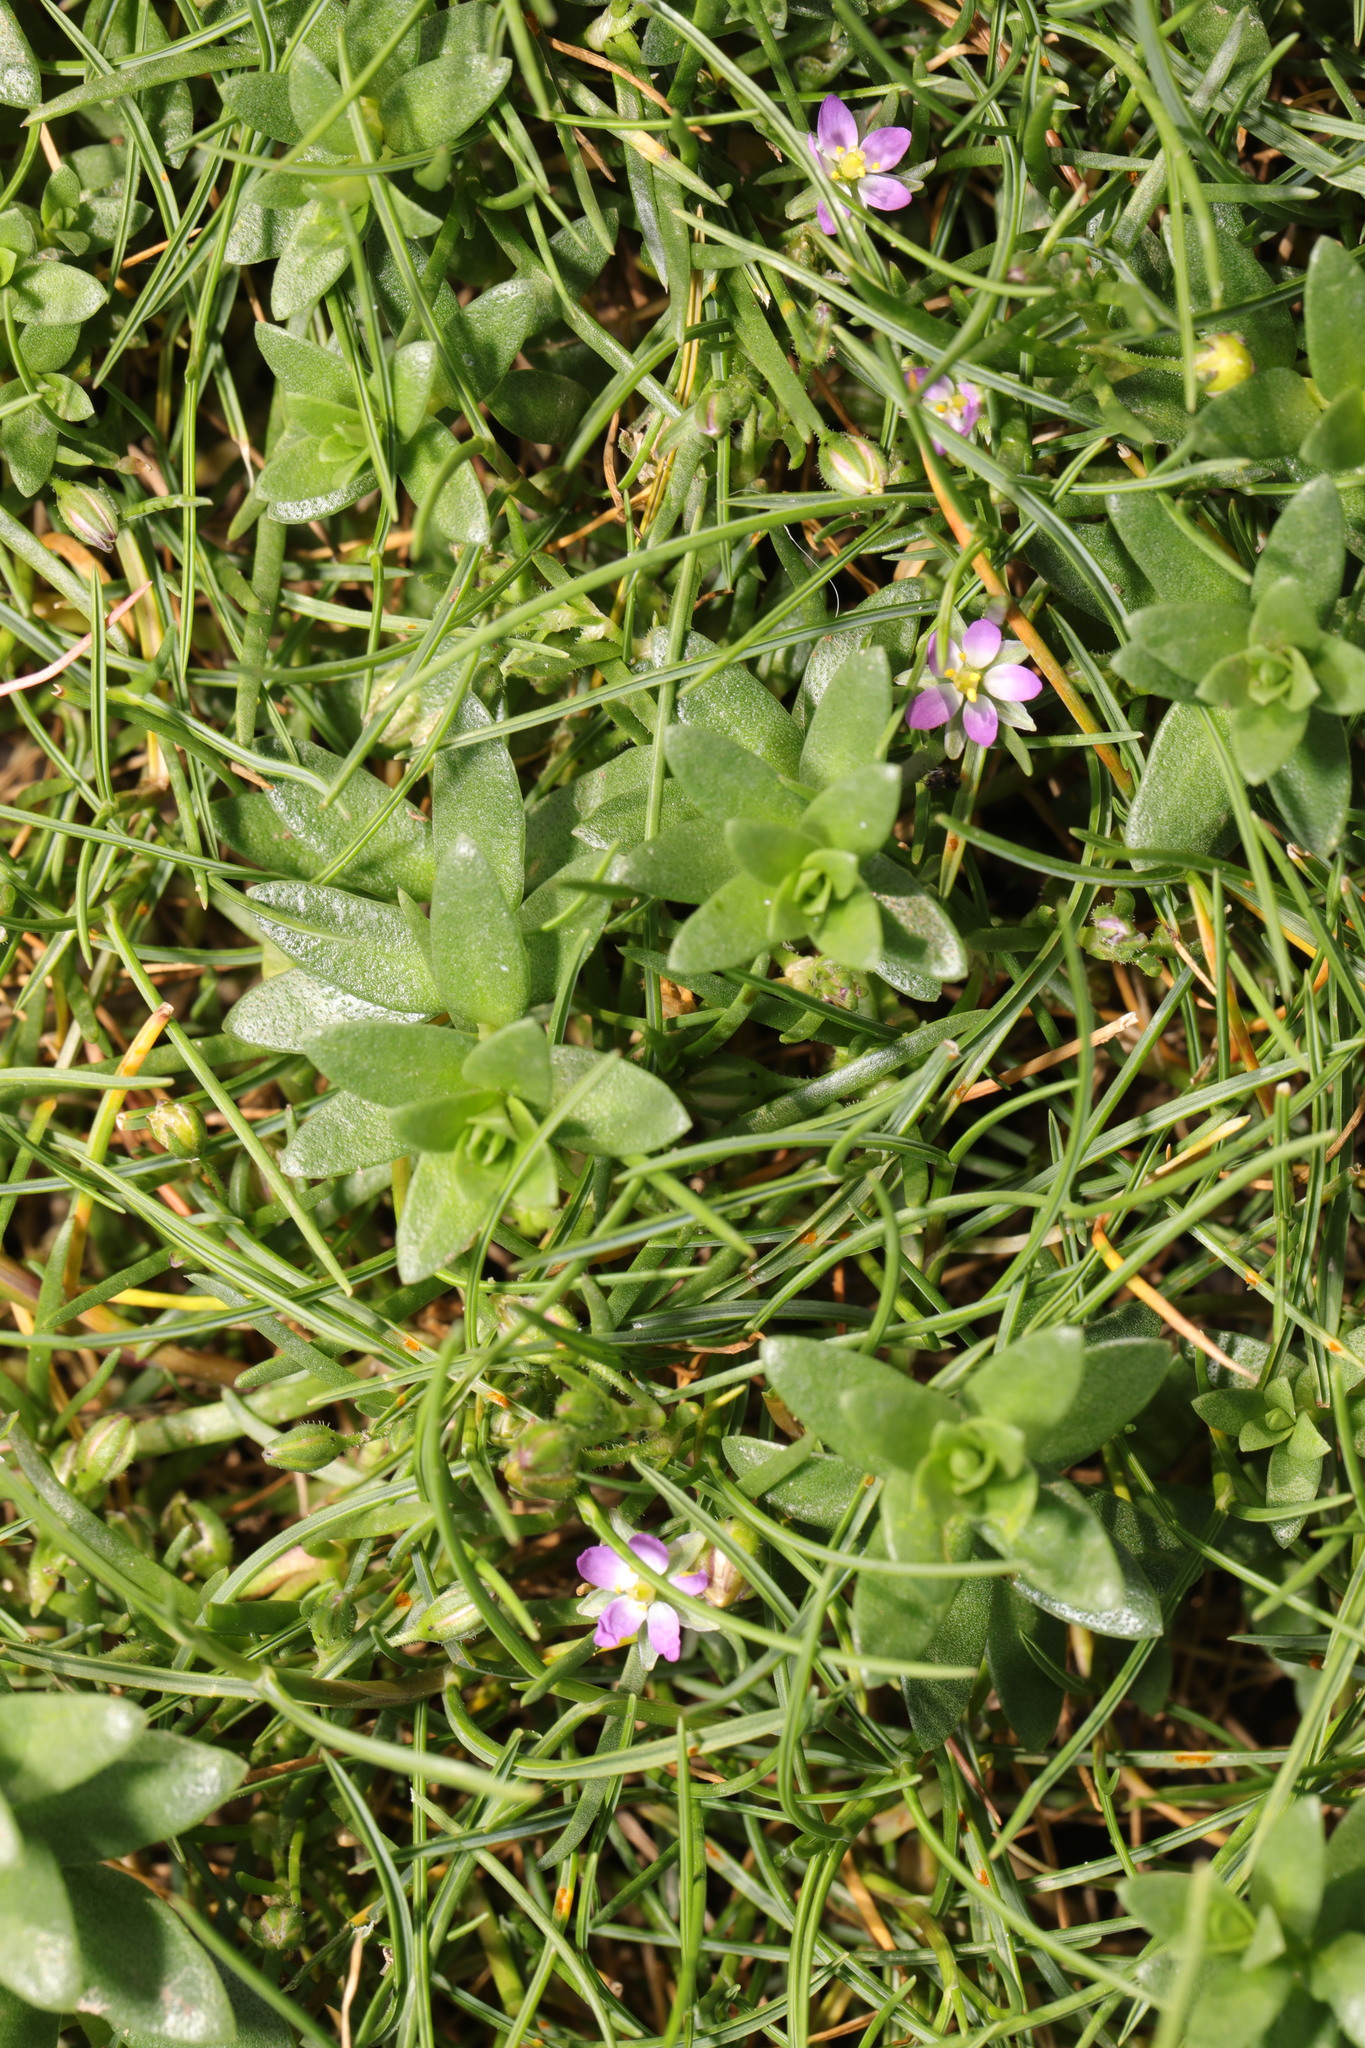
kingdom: Plantae
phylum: Tracheophyta
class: Magnoliopsida
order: Caryophyllales
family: Caryophyllaceae
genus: Spergularia
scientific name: Spergularia marina
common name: Lesser sea-spurrey
